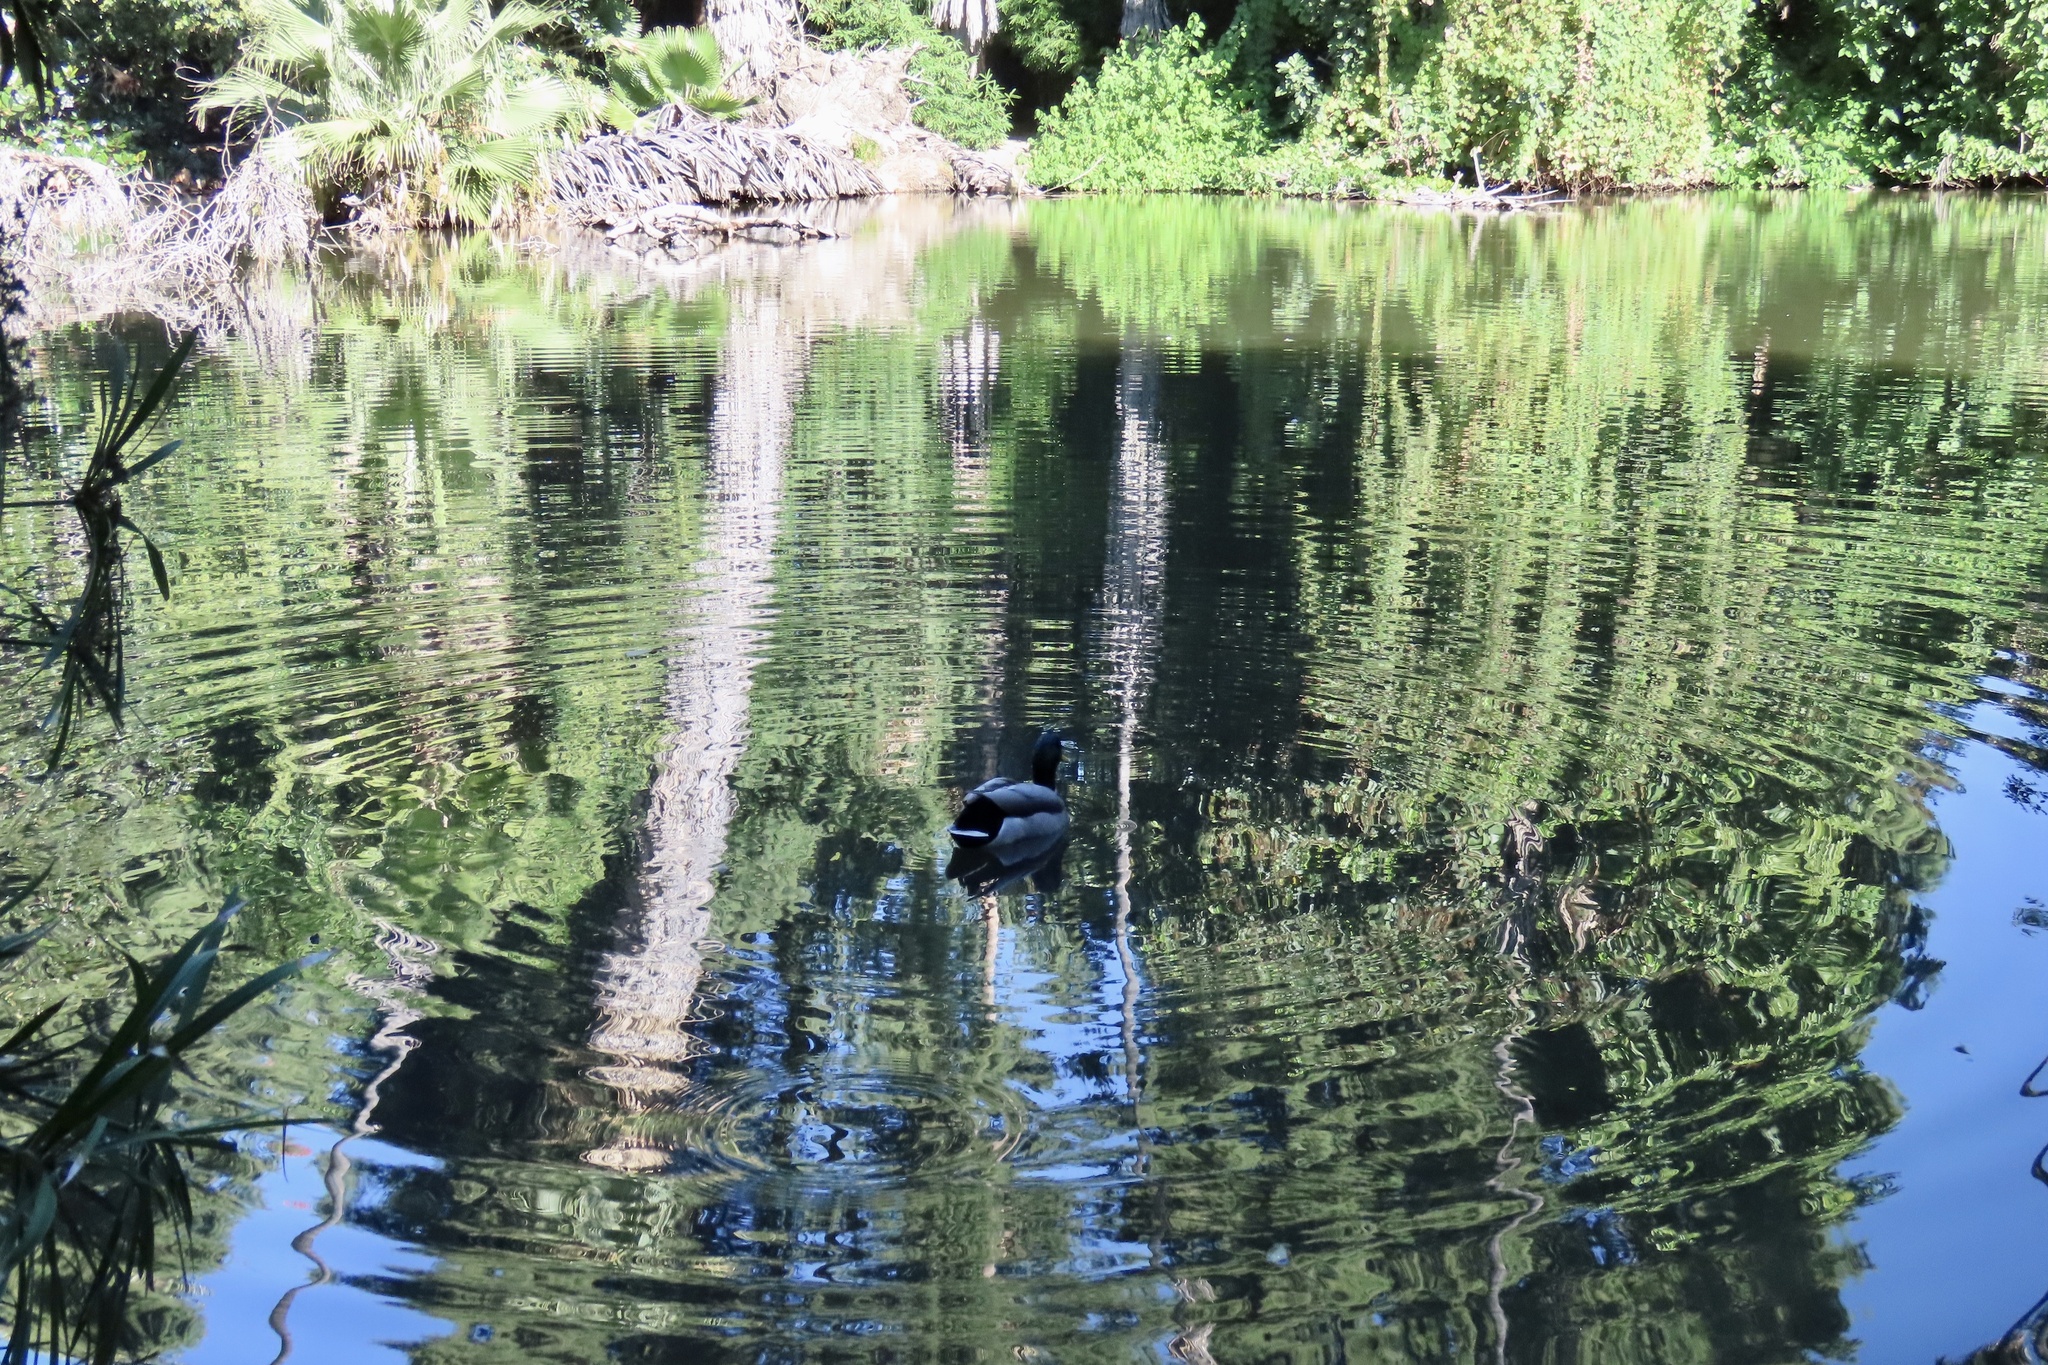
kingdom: Animalia
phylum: Chordata
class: Aves
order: Anseriformes
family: Anatidae
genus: Anas
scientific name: Anas platyrhynchos
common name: Mallard
